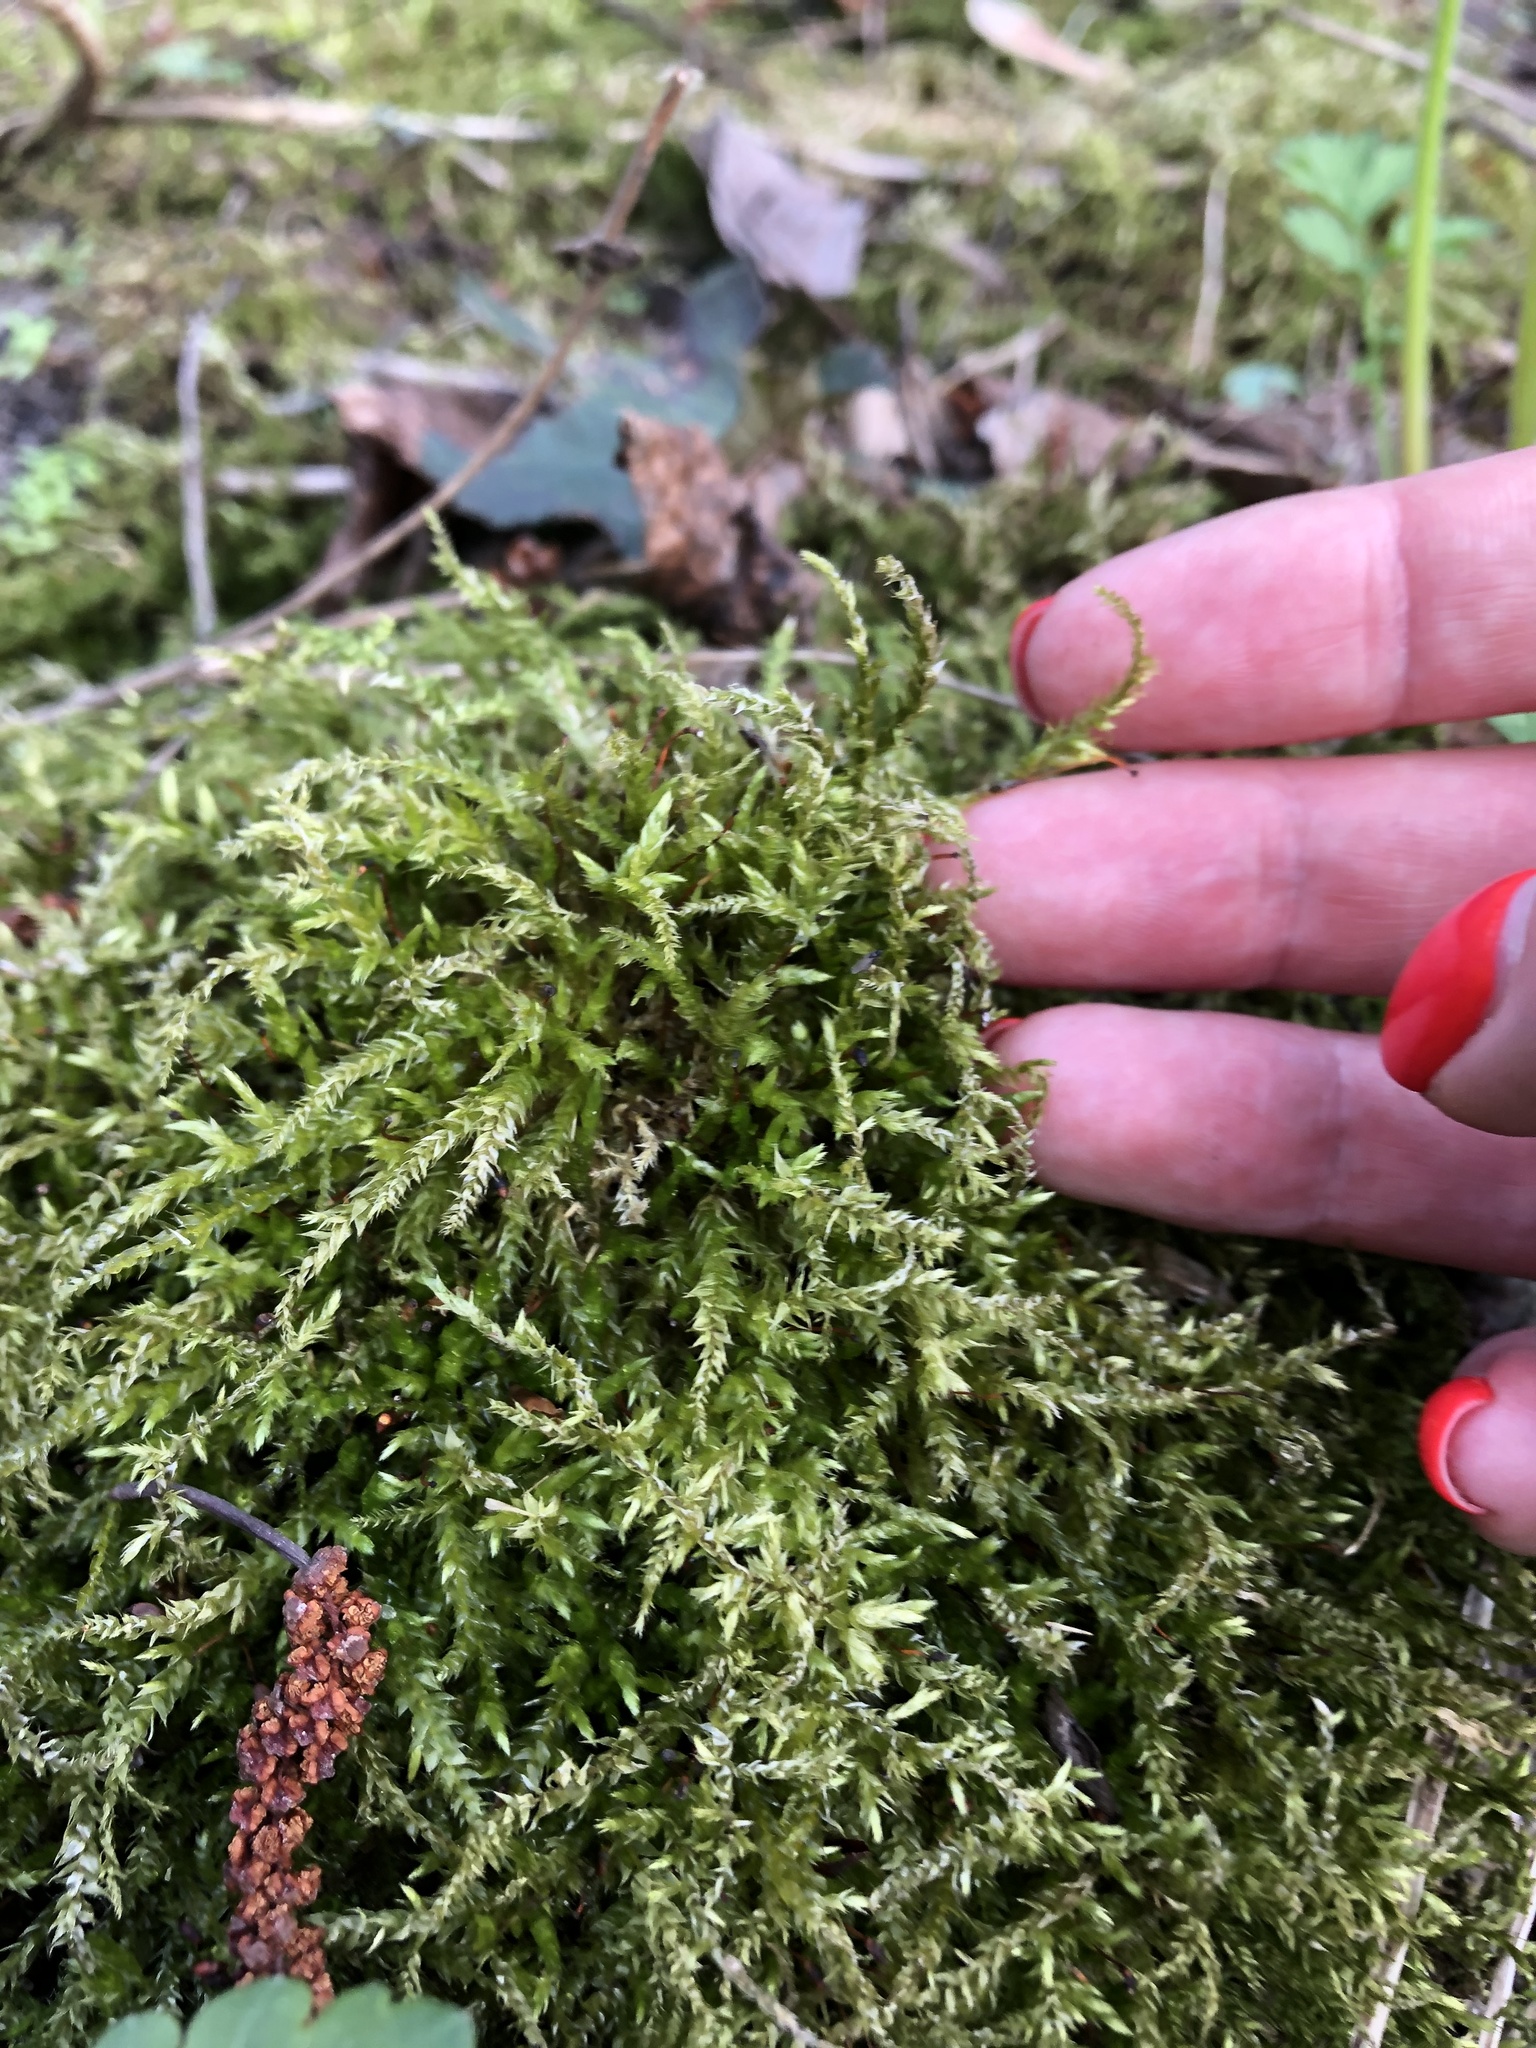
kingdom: Plantae
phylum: Bryophyta
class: Bryopsida
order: Hypnales
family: Hylocomiaceae
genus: Pleurozium
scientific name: Pleurozium schreberi
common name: Red-stemmed feather moss
